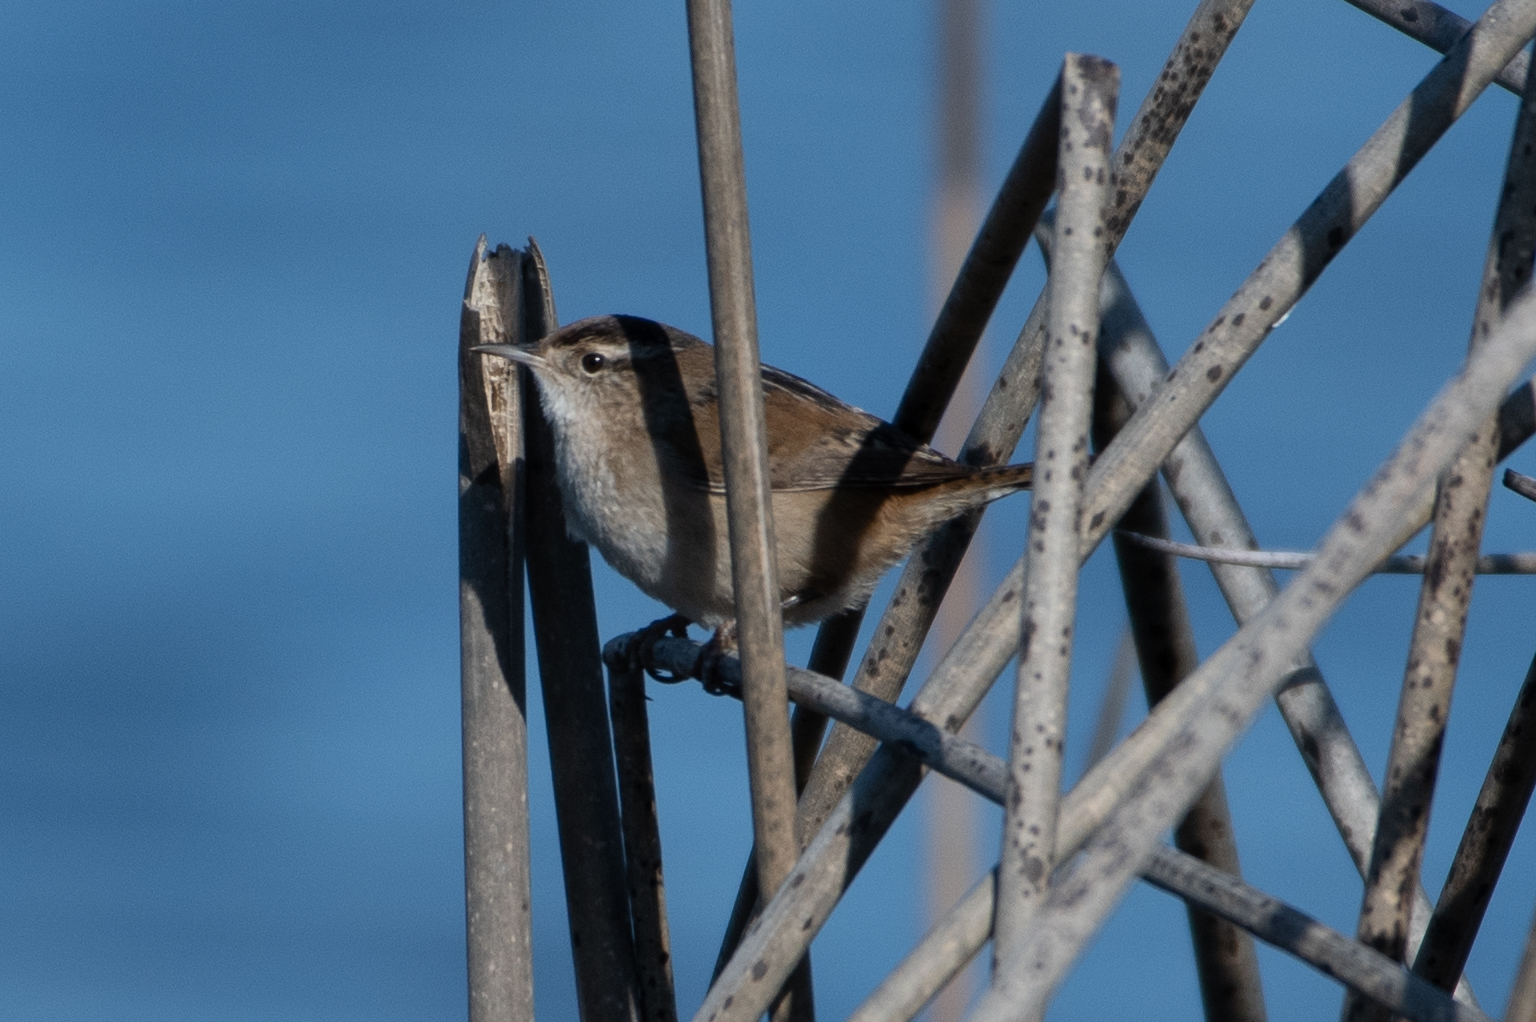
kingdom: Animalia
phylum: Chordata
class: Aves
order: Passeriformes
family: Troglodytidae
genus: Cistothorus
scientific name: Cistothorus palustris
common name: Marsh wren
